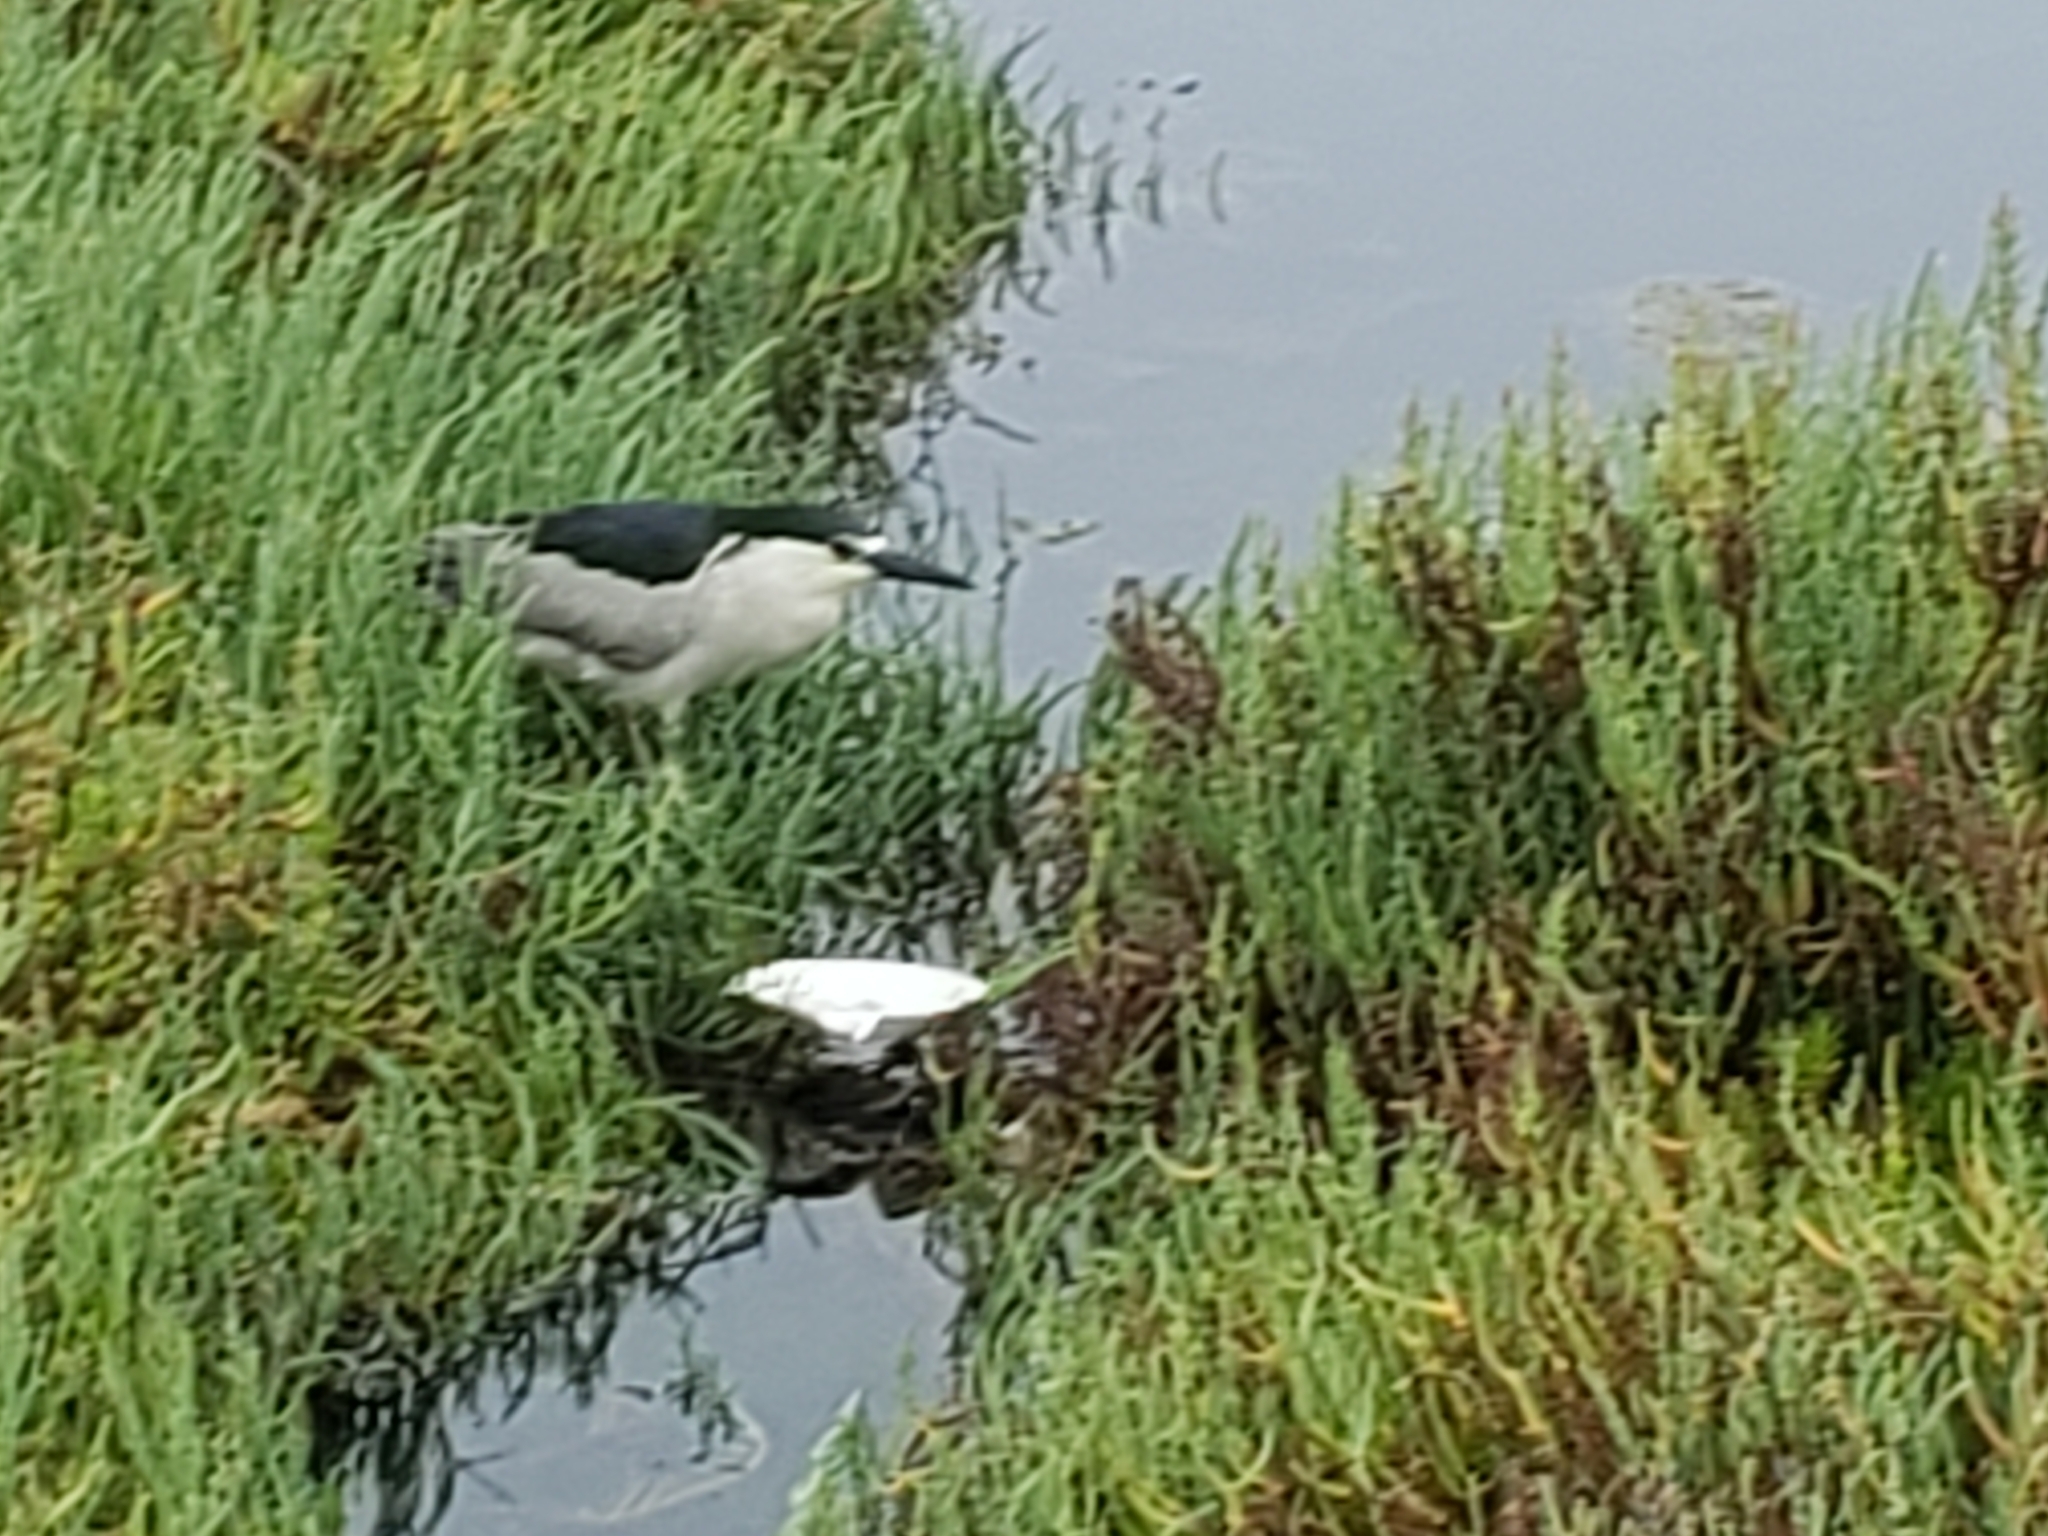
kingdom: Animalia
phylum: Chordata
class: Aves
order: Pelecaniformes
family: Ardeidae
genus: Nycticorax
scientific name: Nycticorax nycticorax
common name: Black-crowned night heron
